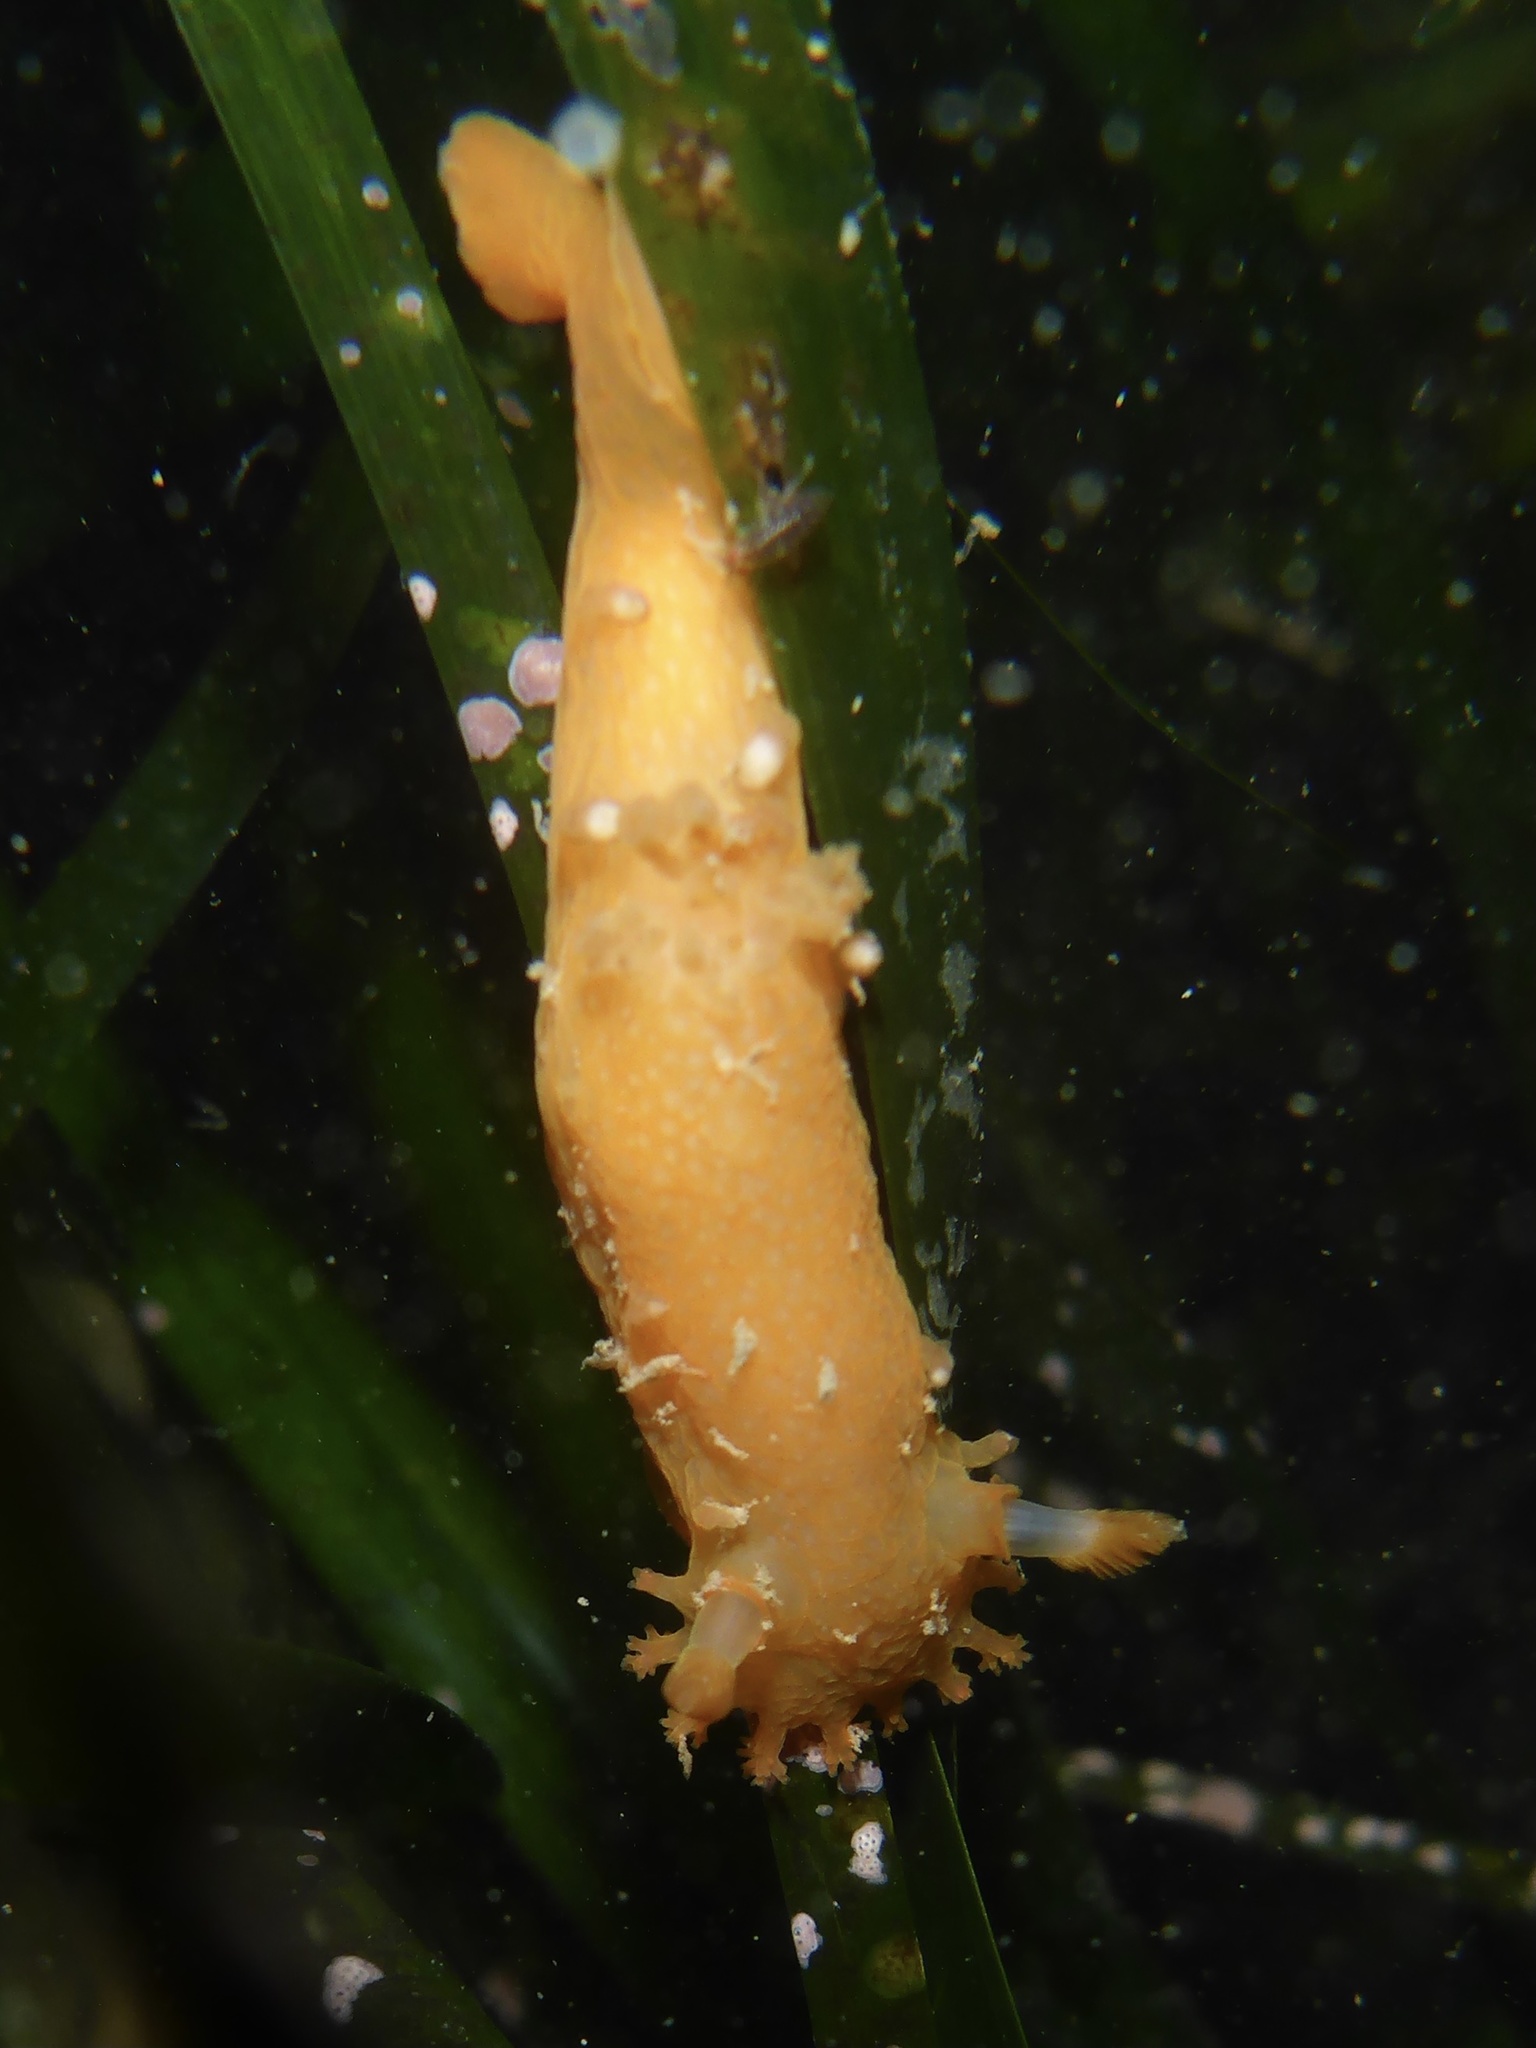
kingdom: Animalia
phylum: Mollusca
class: Gastropoda
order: Nudibranchia
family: Polyceridae
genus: Triopha
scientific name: Triopha maculata
